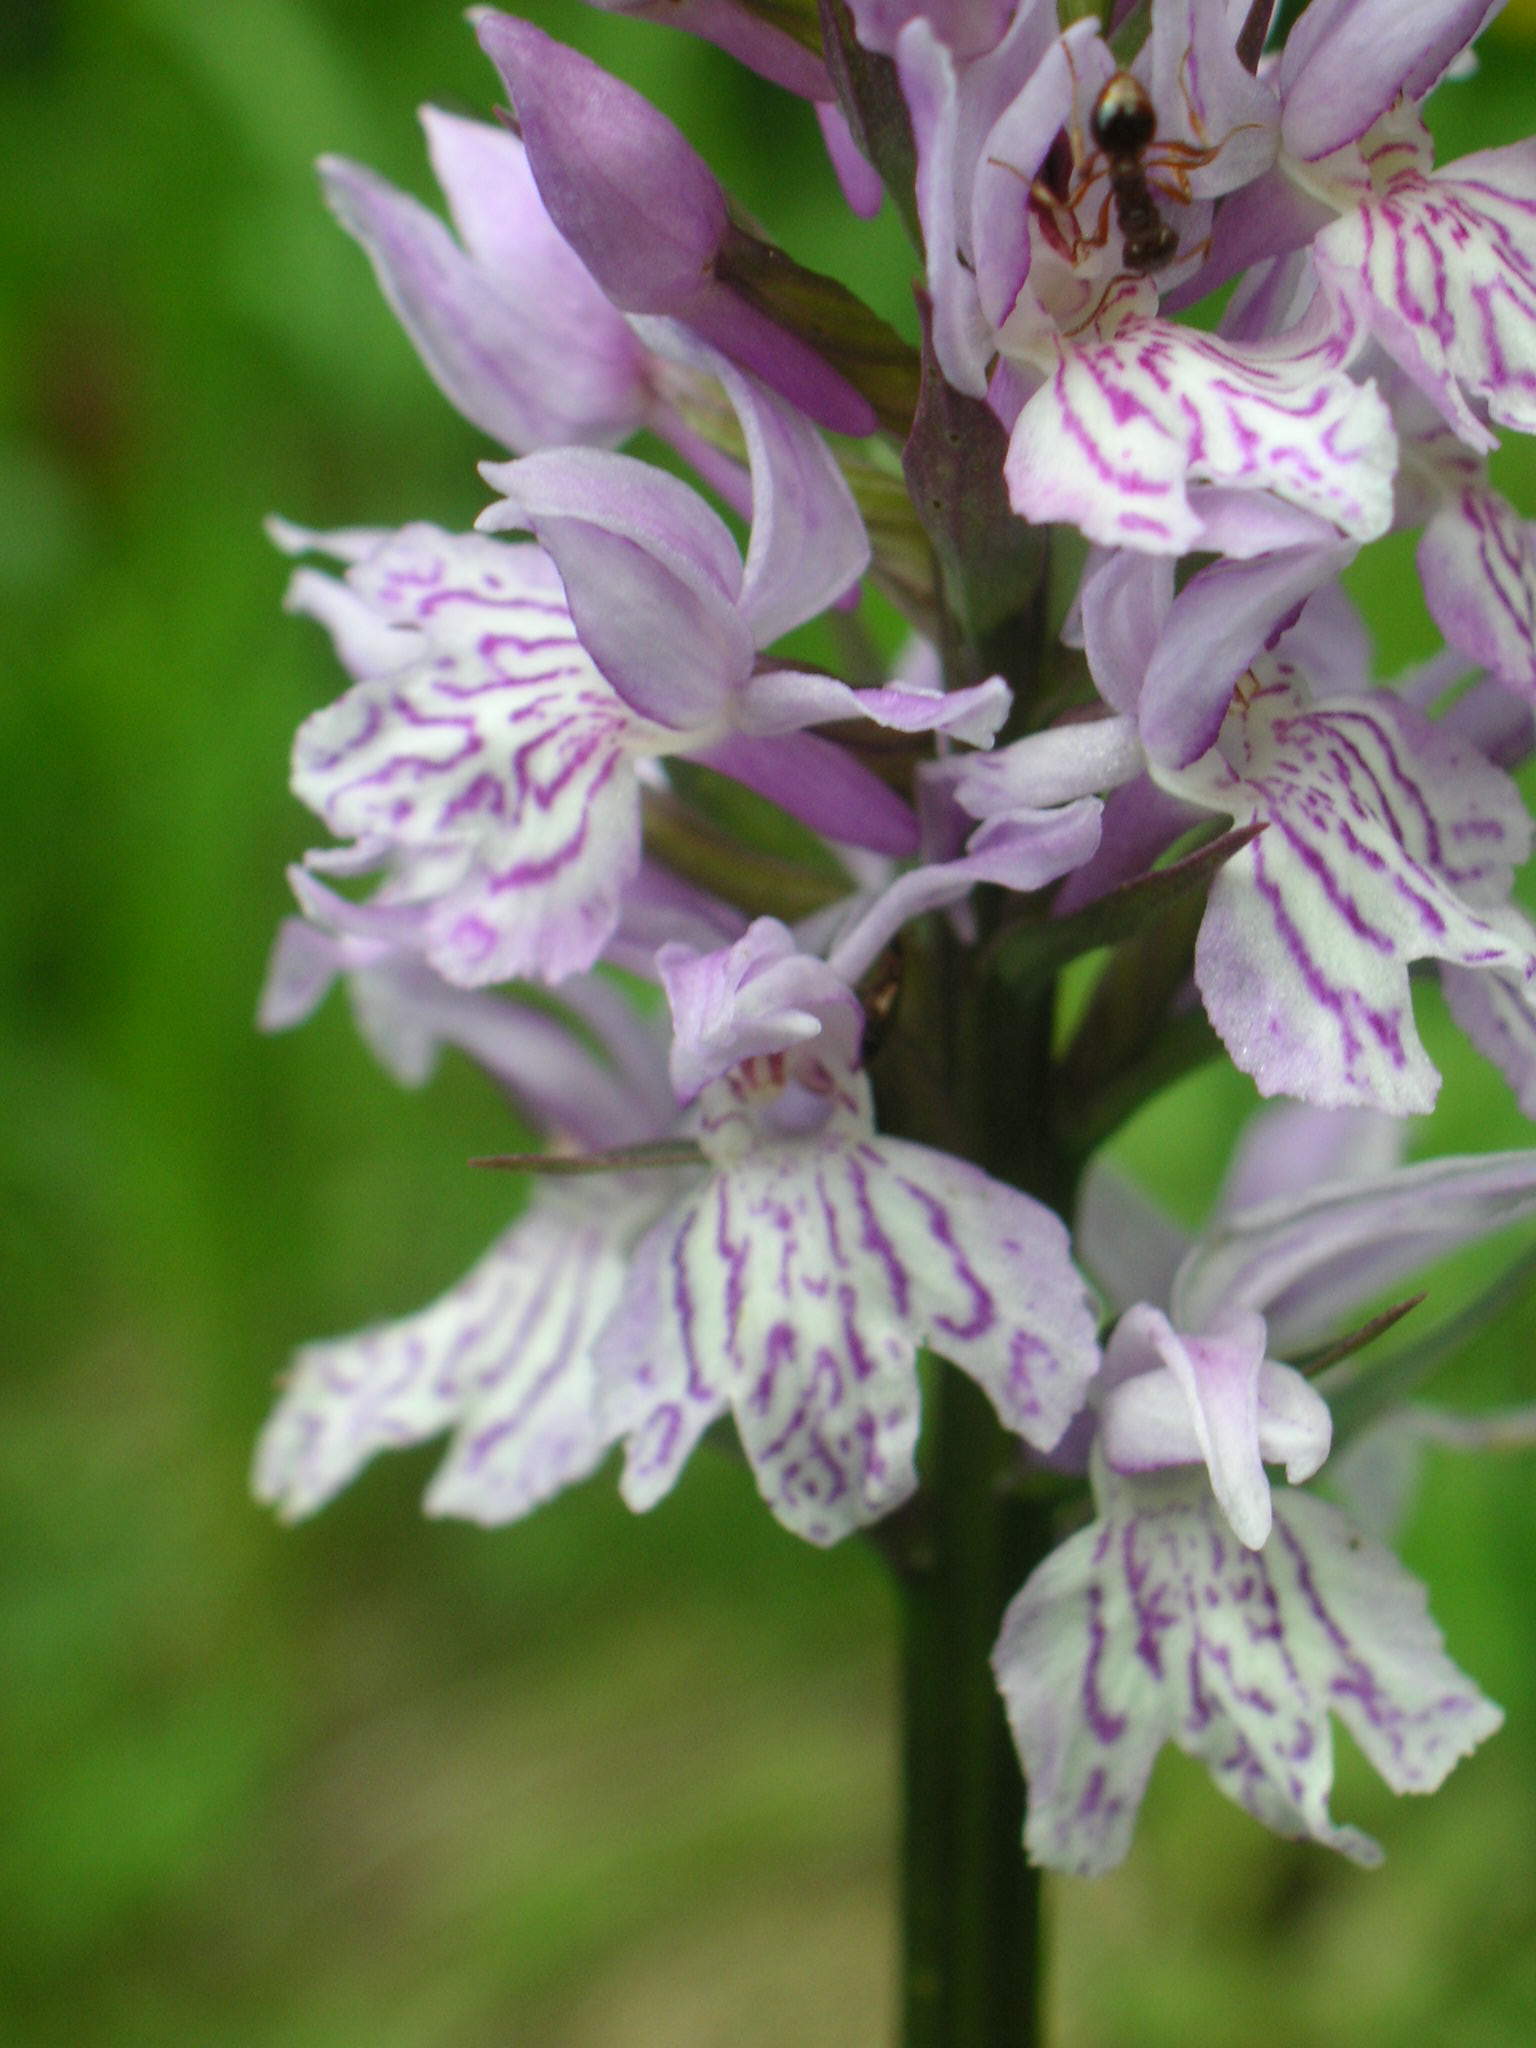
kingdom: Plantae
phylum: Tracheophyta
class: Liliopsida
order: Asparagales
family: Orchidaceae
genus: Dactylorhiza
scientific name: Dactylorhiza maculata
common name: Heath spotted-orchid
